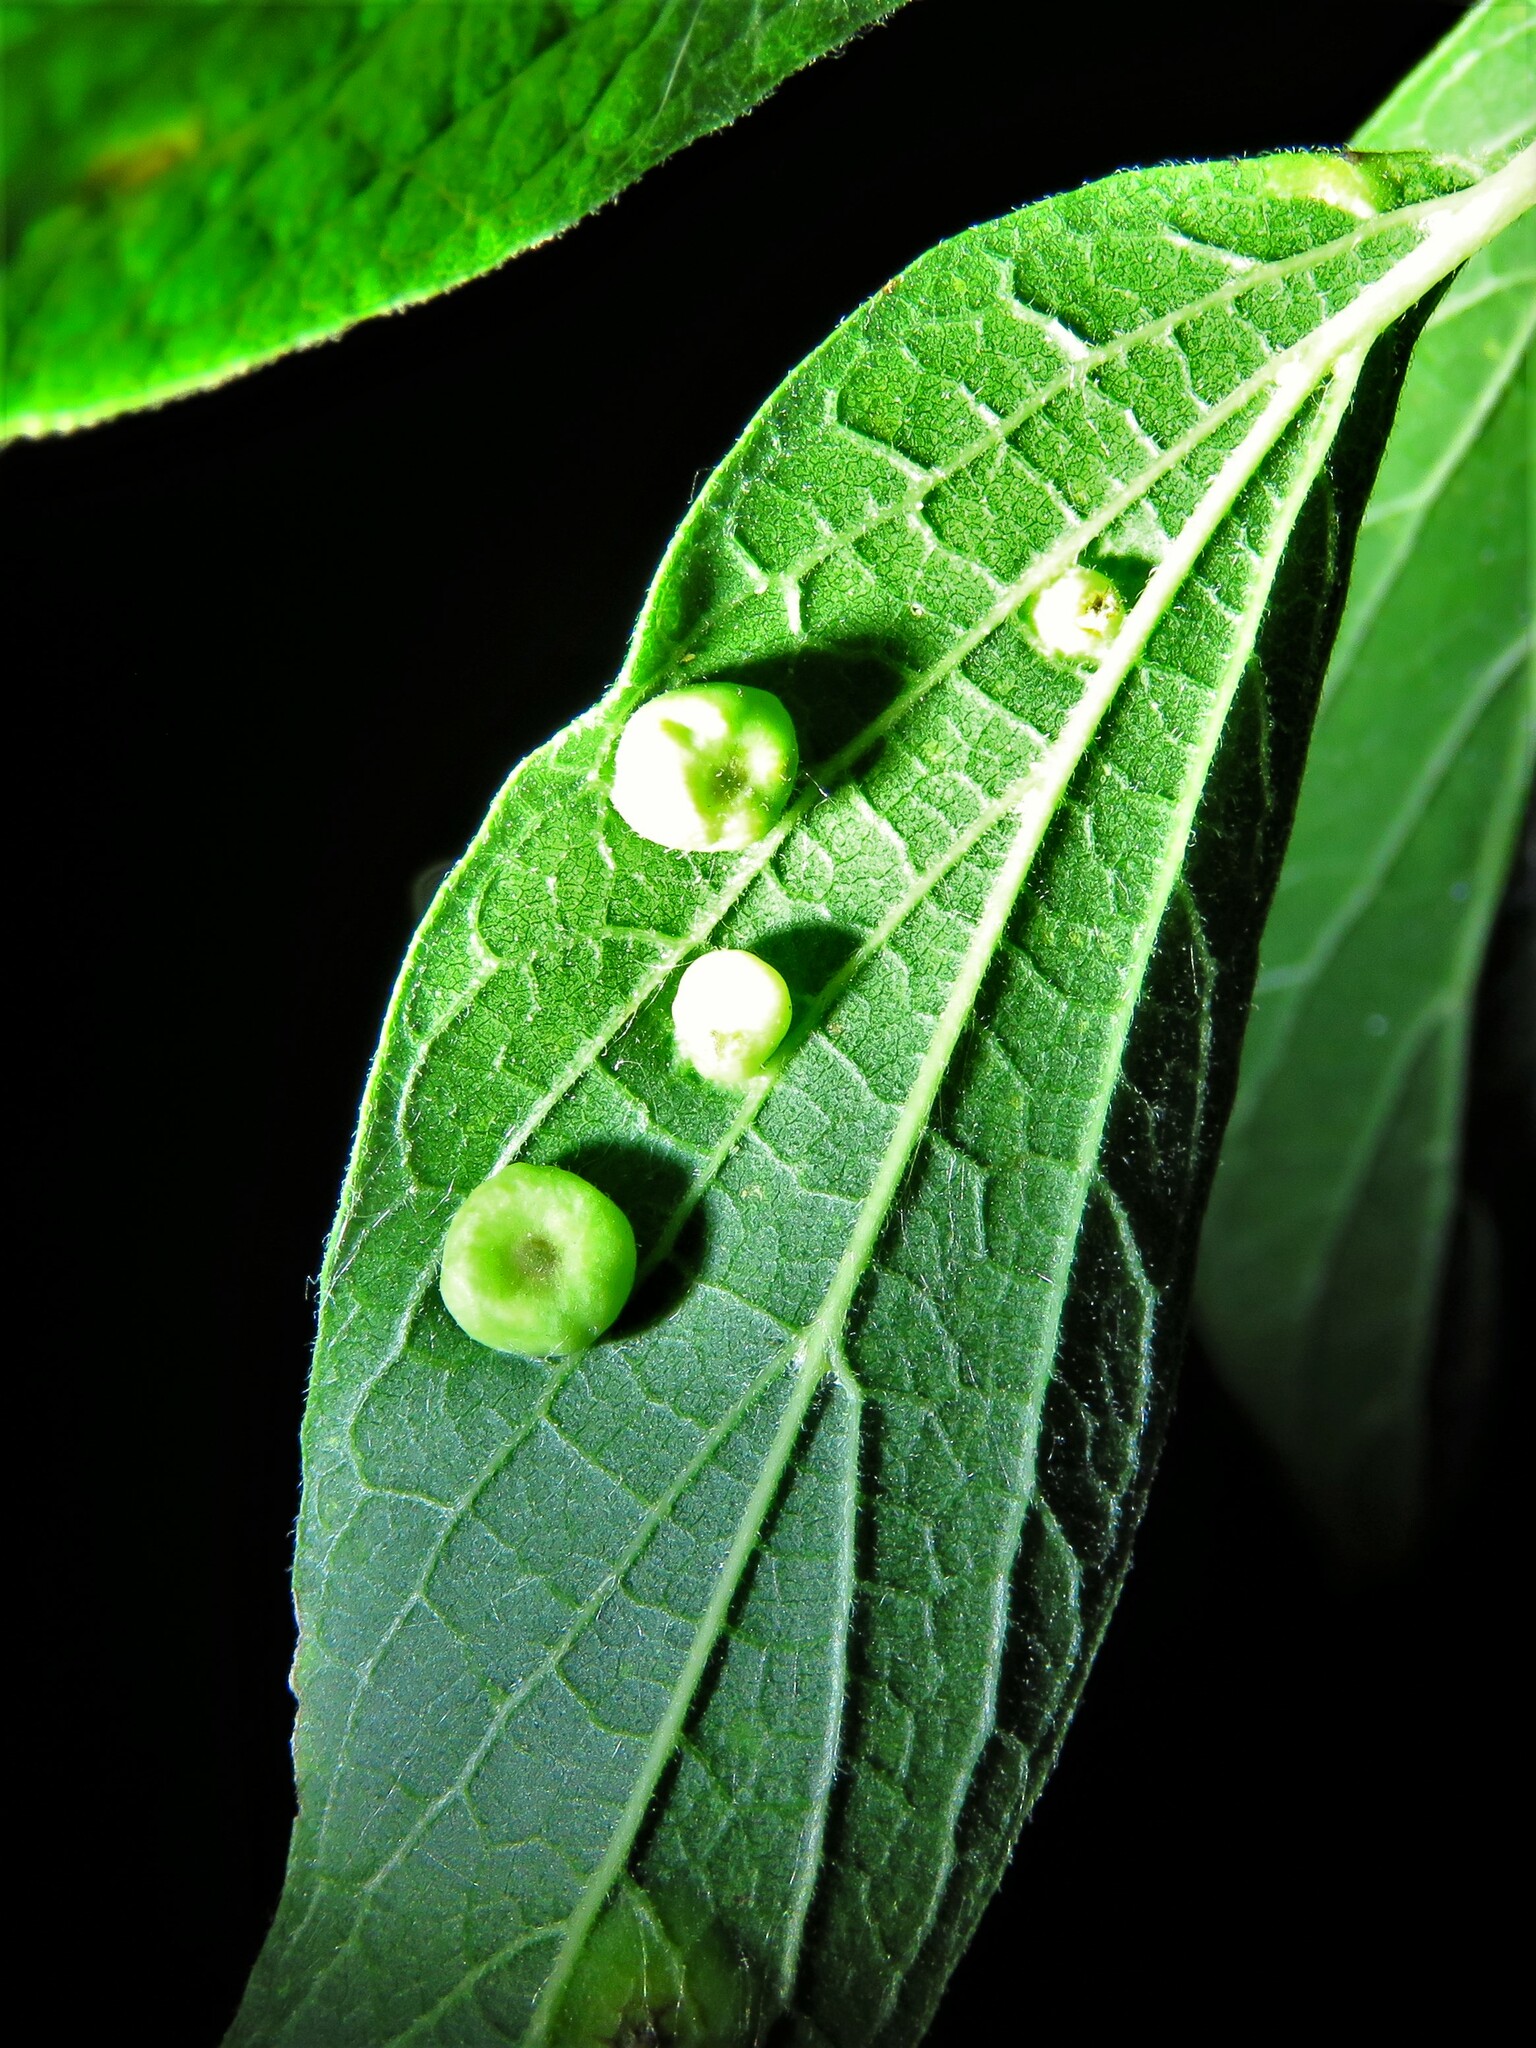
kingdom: Animalia
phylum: Arthropoda
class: Insecta
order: Hemiptera
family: Aphalaridae
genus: Pachypsylla
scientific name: Pachypsylla celtidismamma
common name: Hackberry nipplegall psyllid
